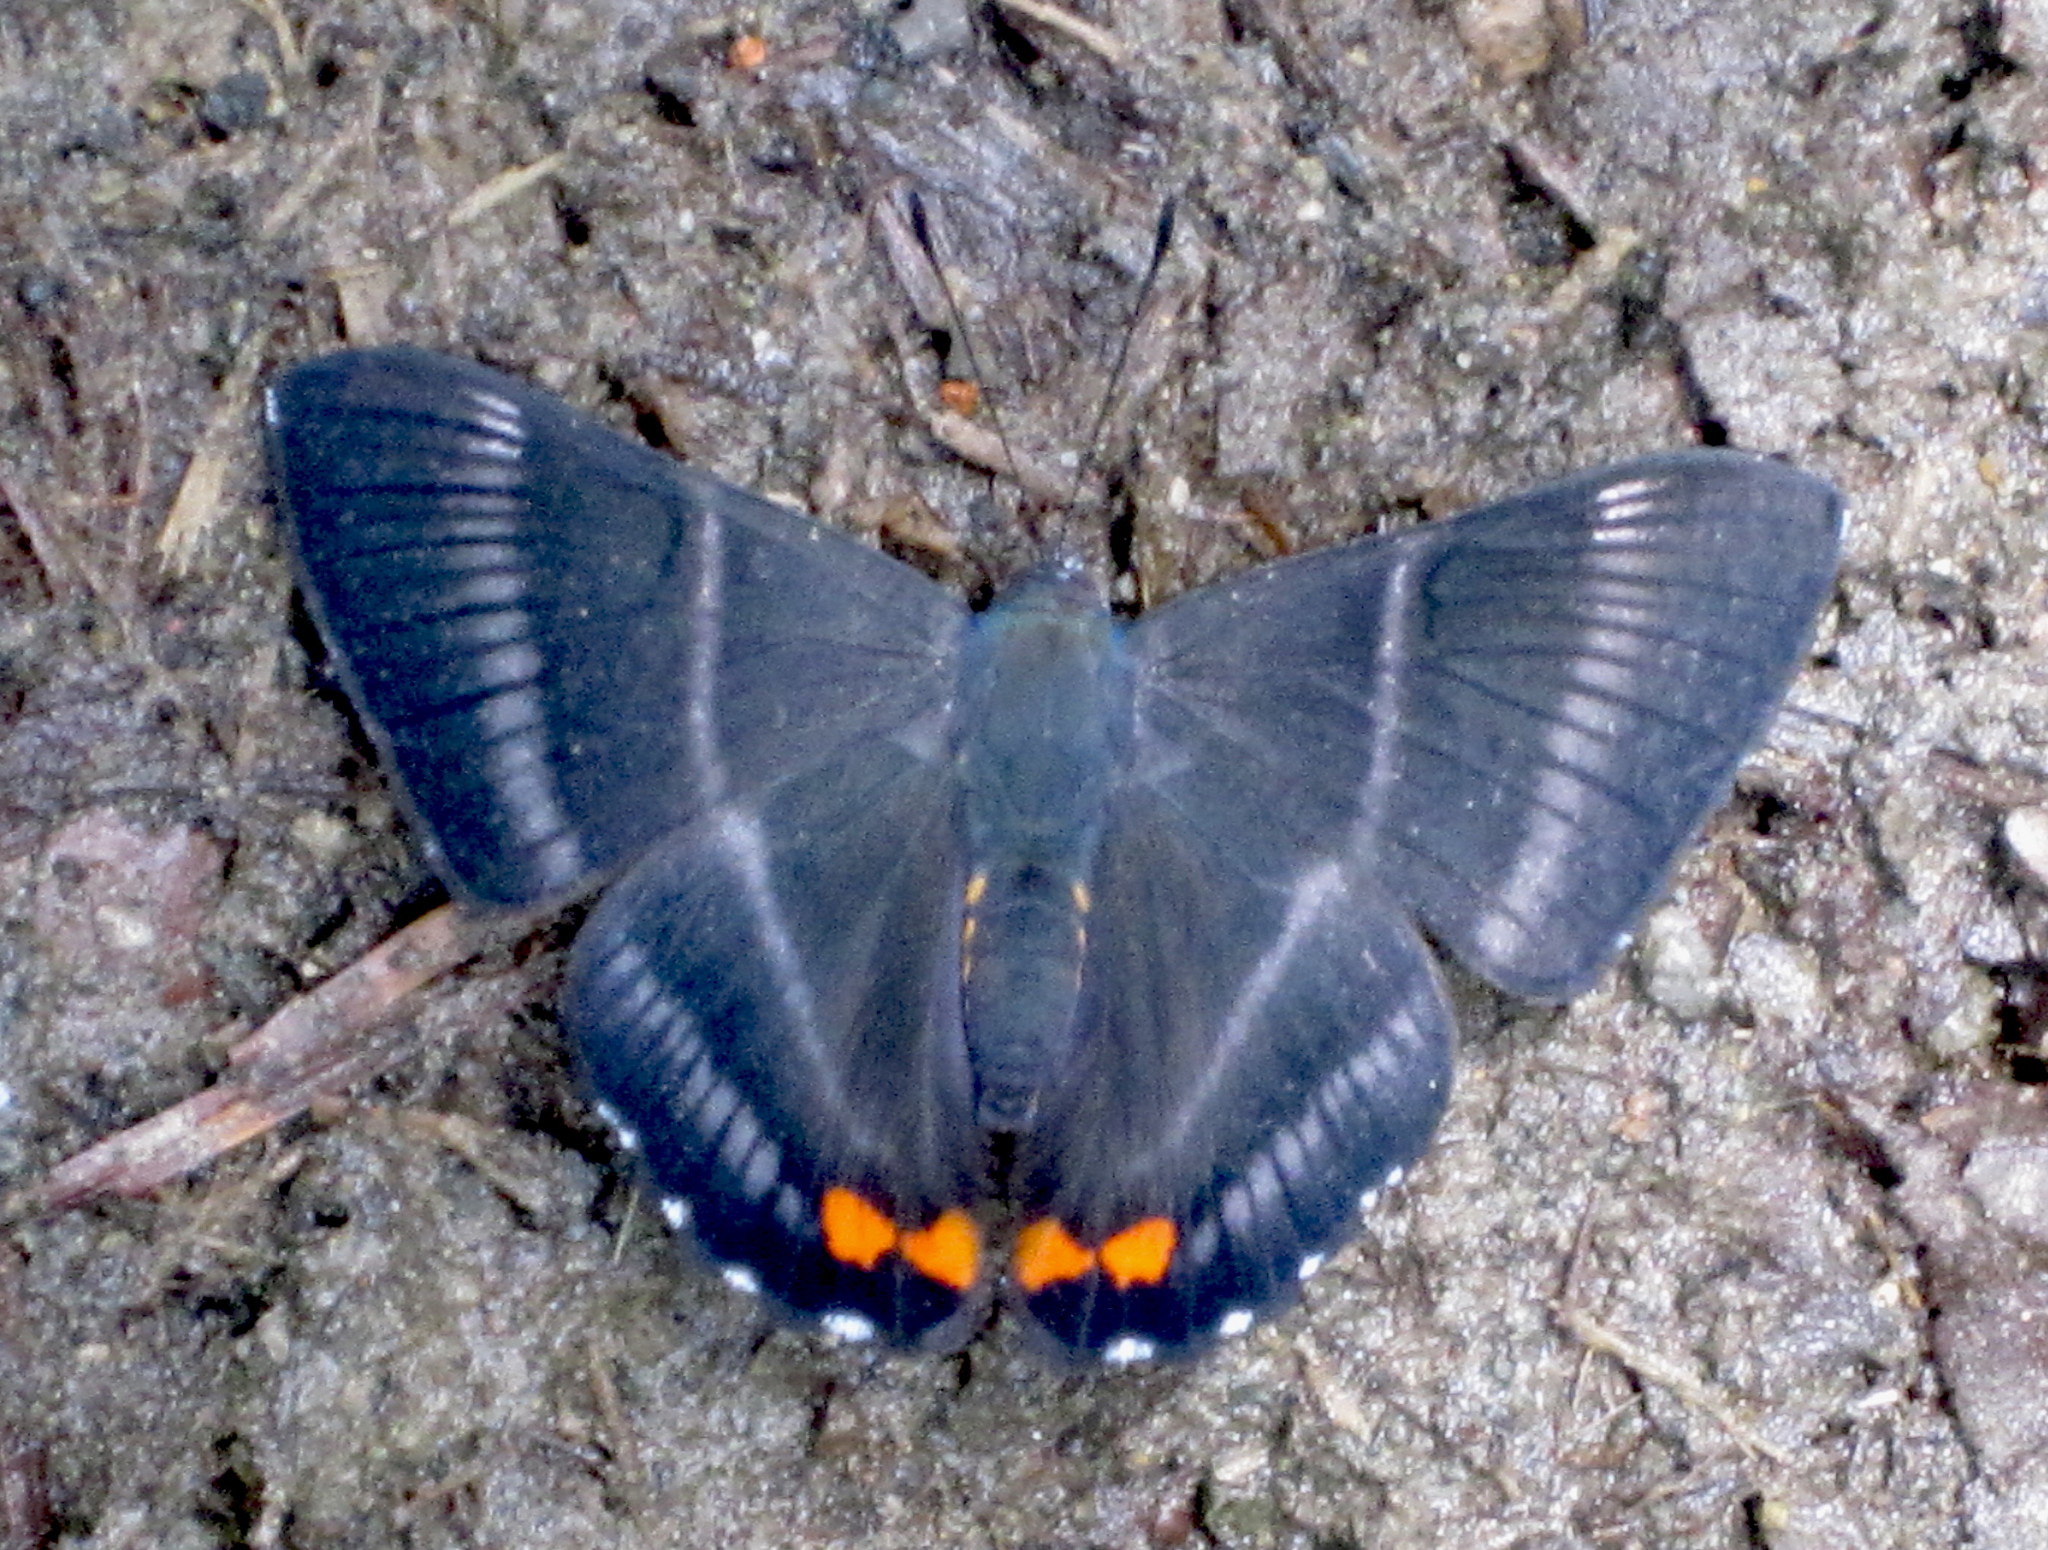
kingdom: Animalia
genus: Siseme
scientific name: Siseme aristoteles
